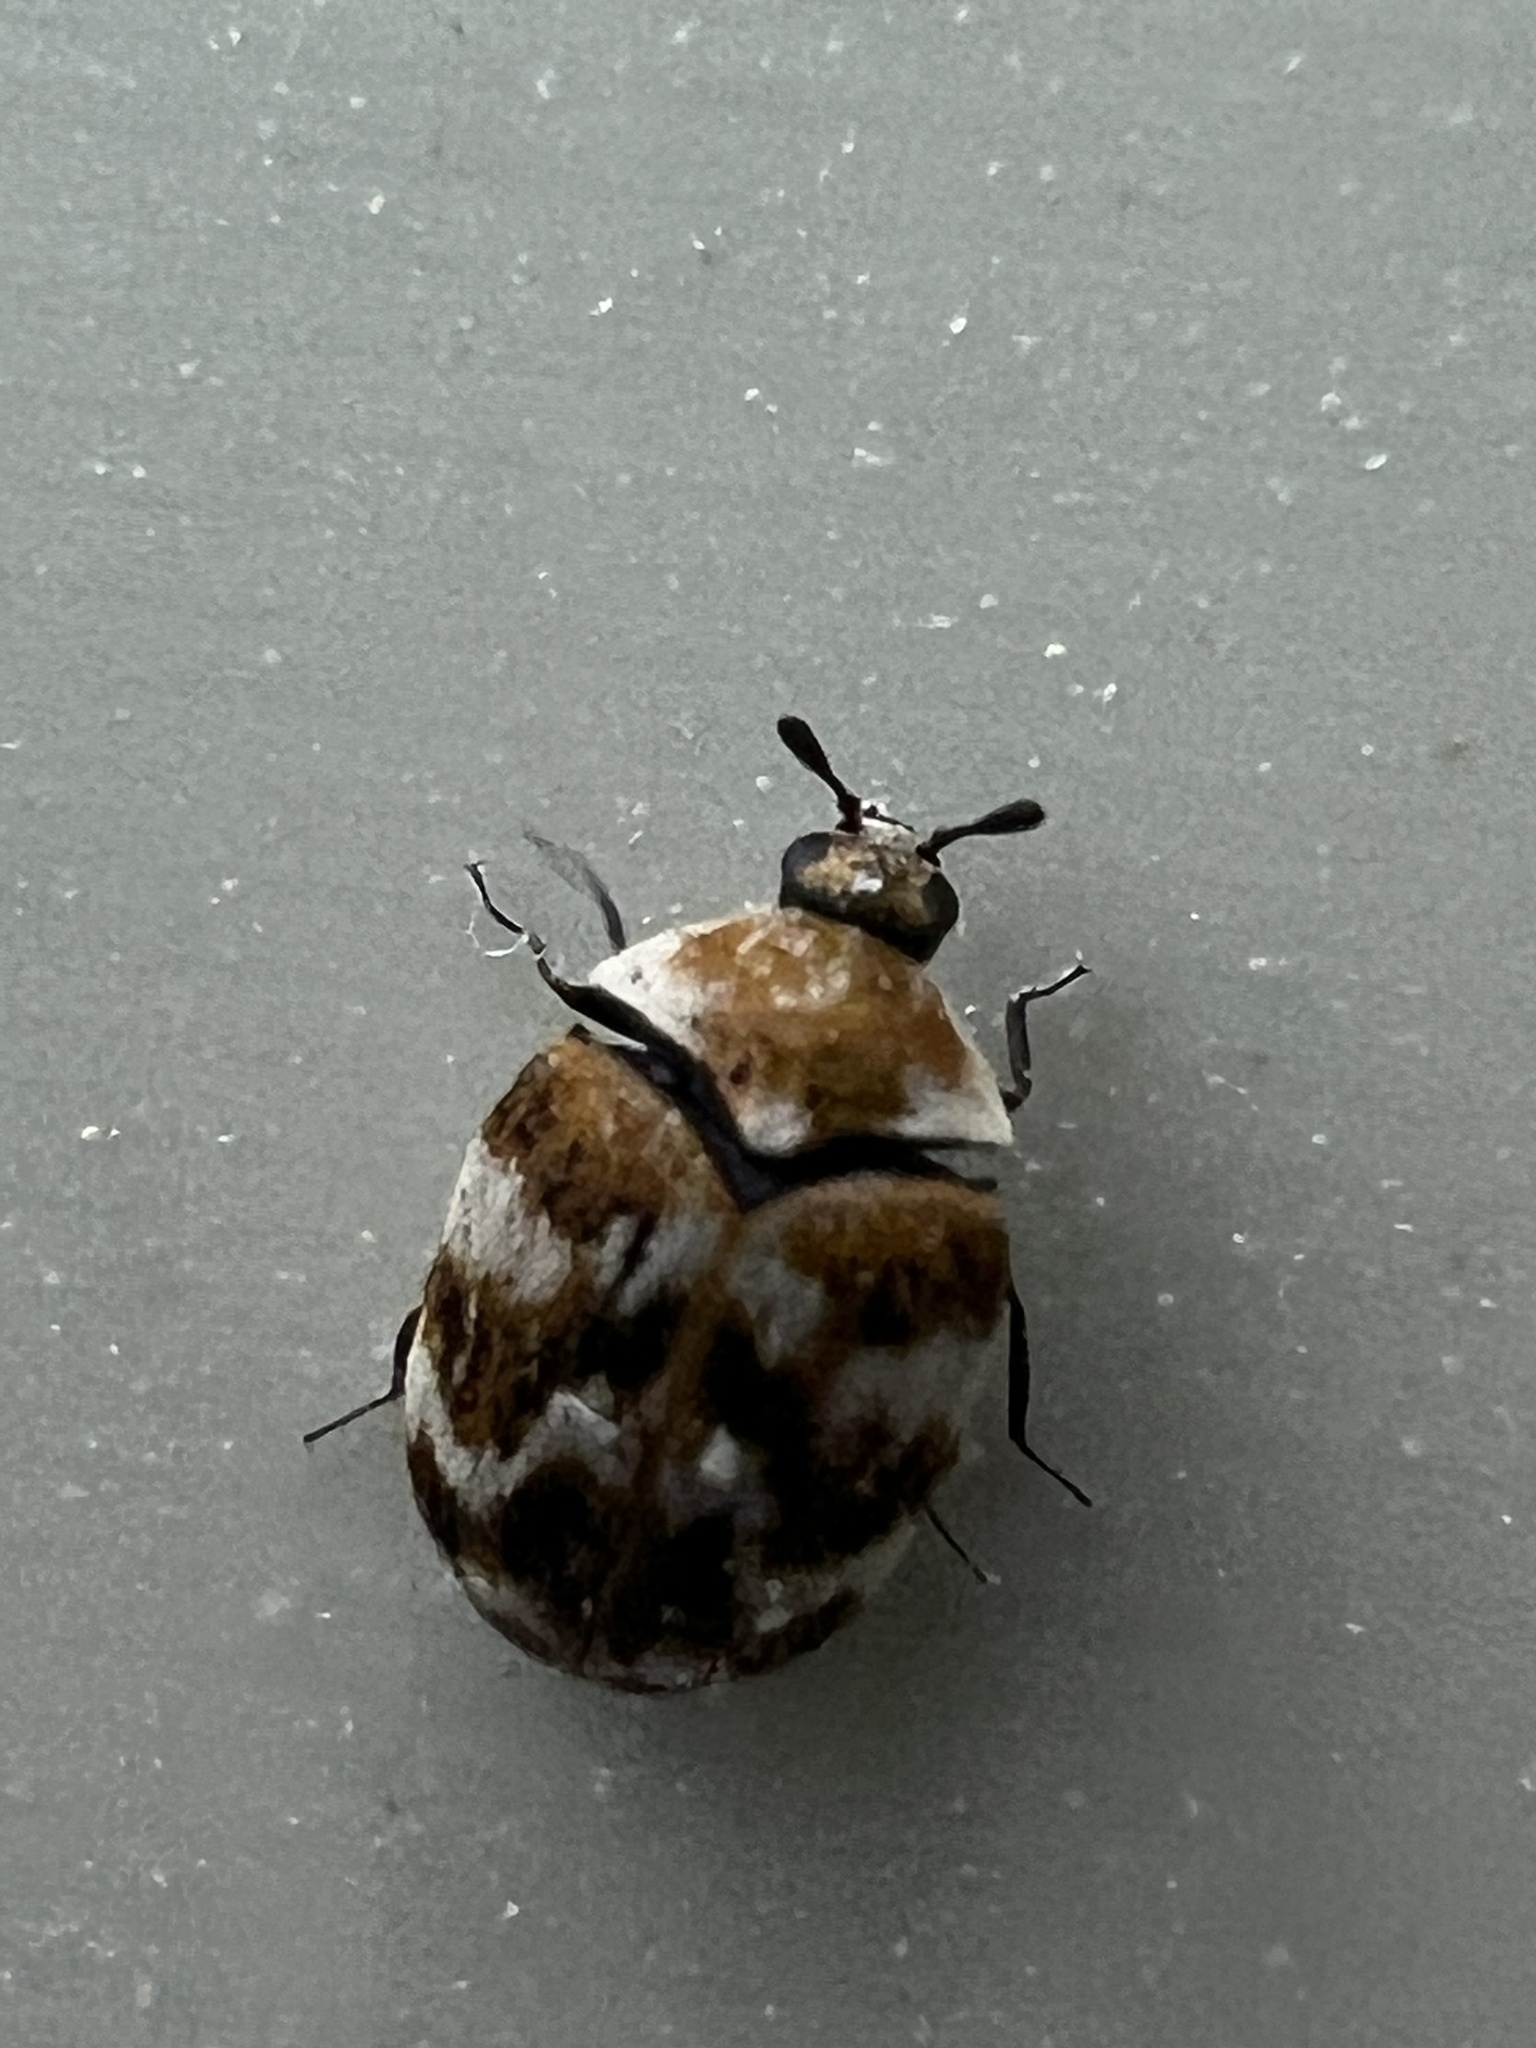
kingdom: Animalia
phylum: Arthropoda
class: Insecta
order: Coleoptera
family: Dermestidae
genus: Anthrenus
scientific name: Anthrenus verbasci
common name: Varied carpet beetle
